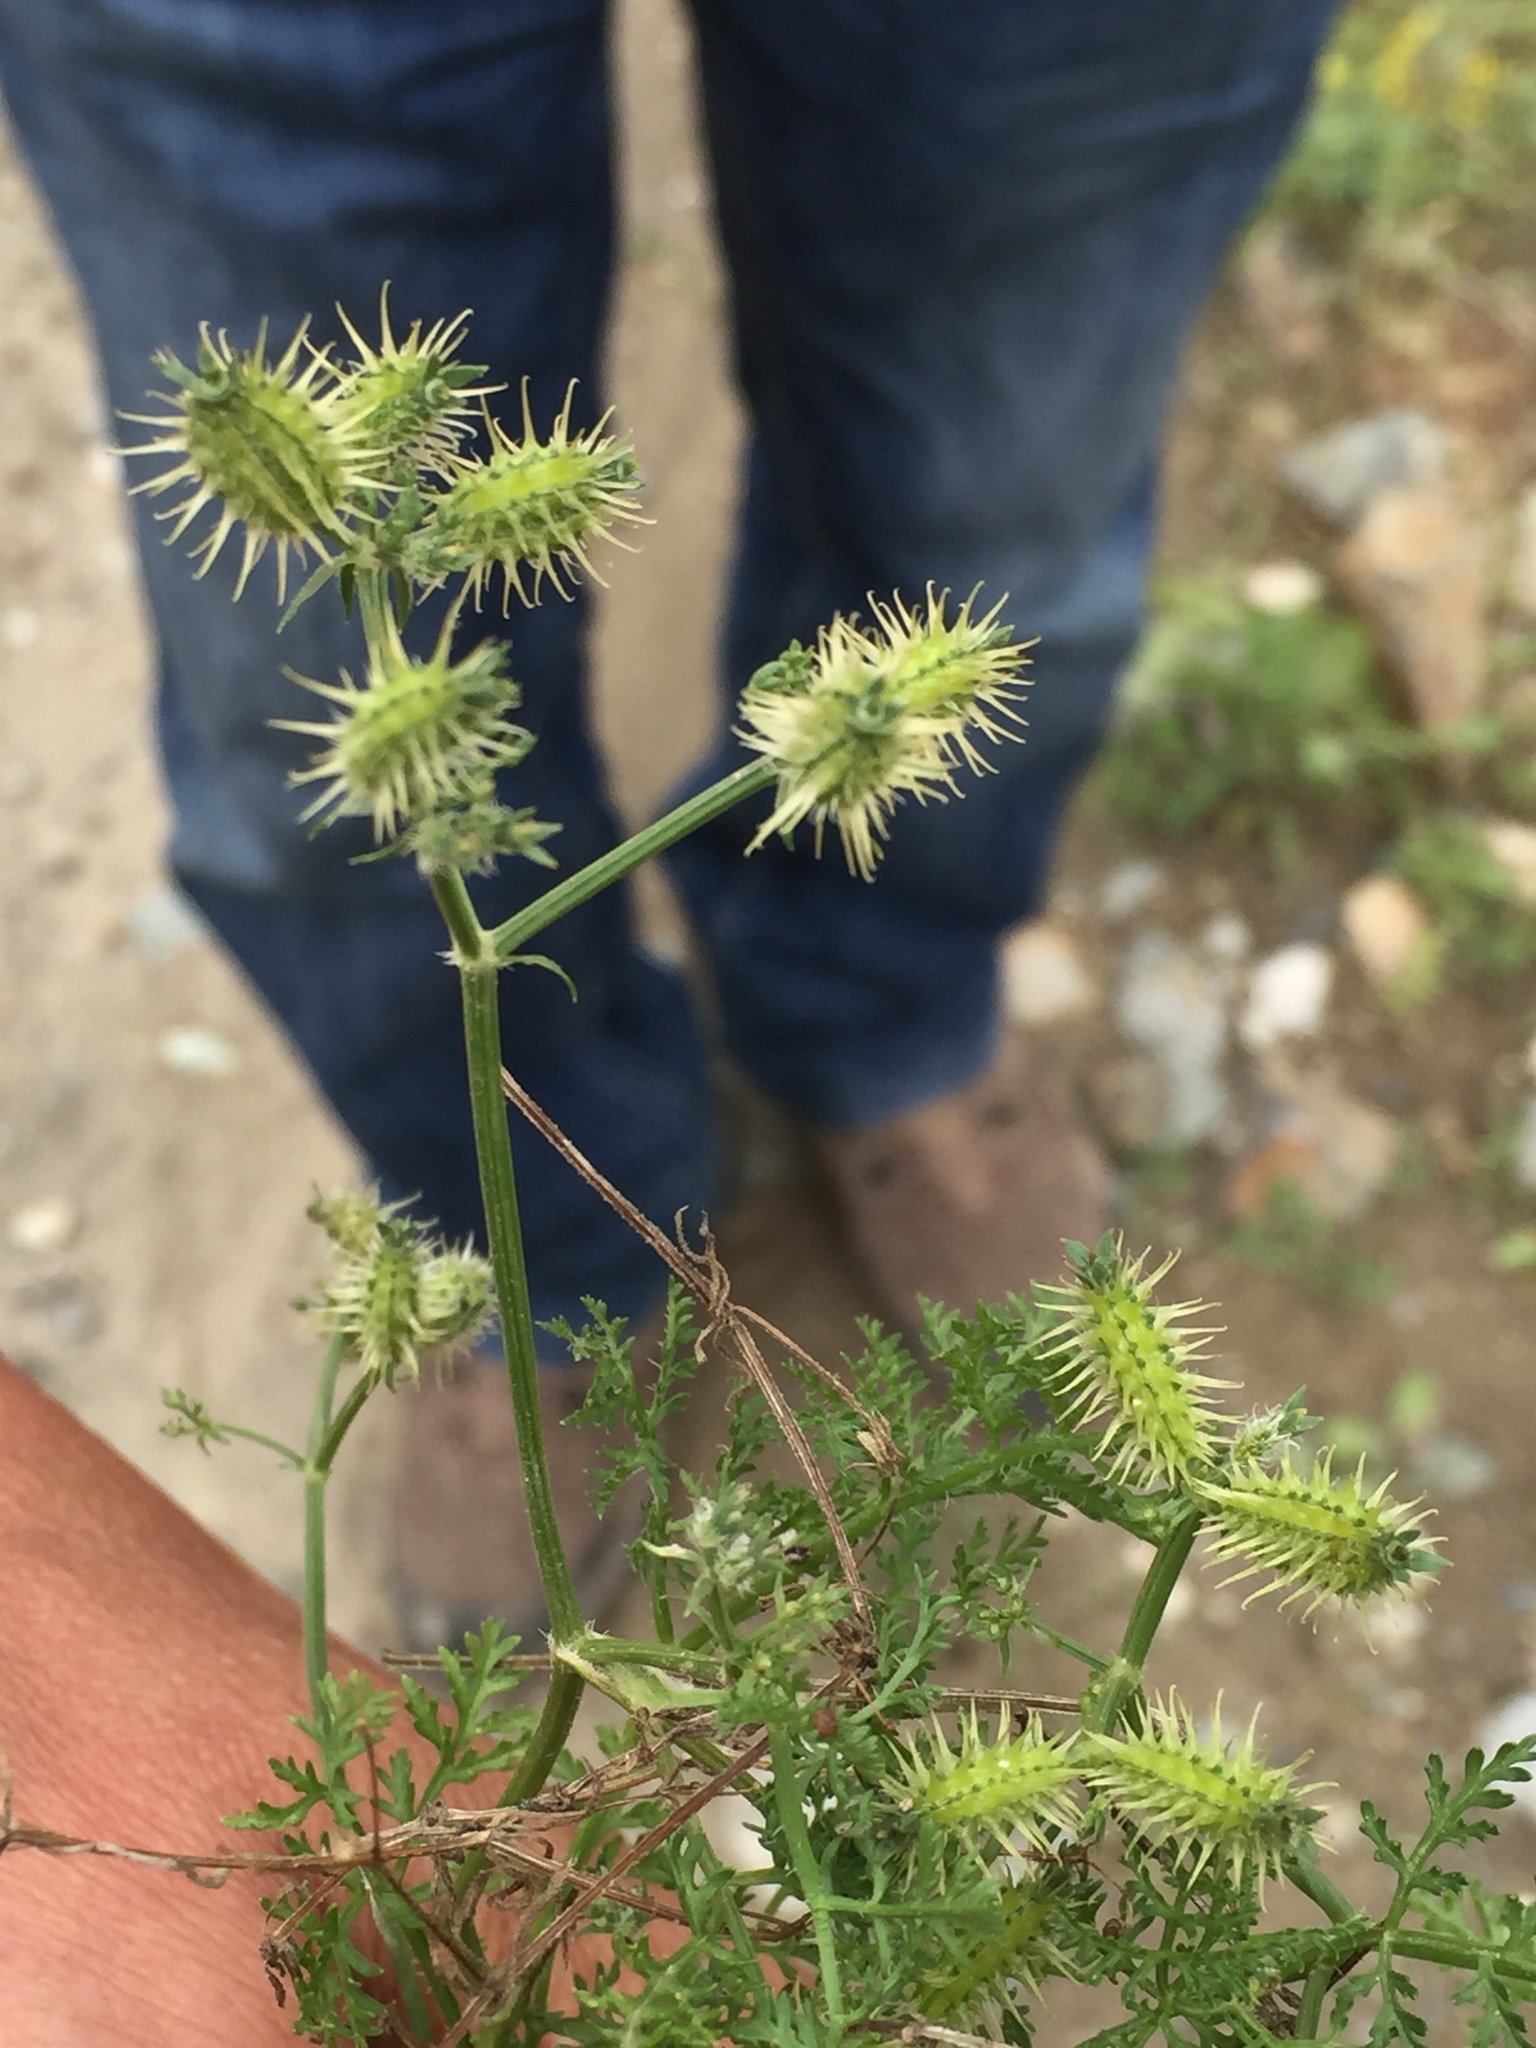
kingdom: Plantae
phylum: Tracheophyta
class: Magnoliopsida
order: Apiales
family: Apiaceae
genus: Caucalis
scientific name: Caucalis platycarpos
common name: Small bur-parsley
